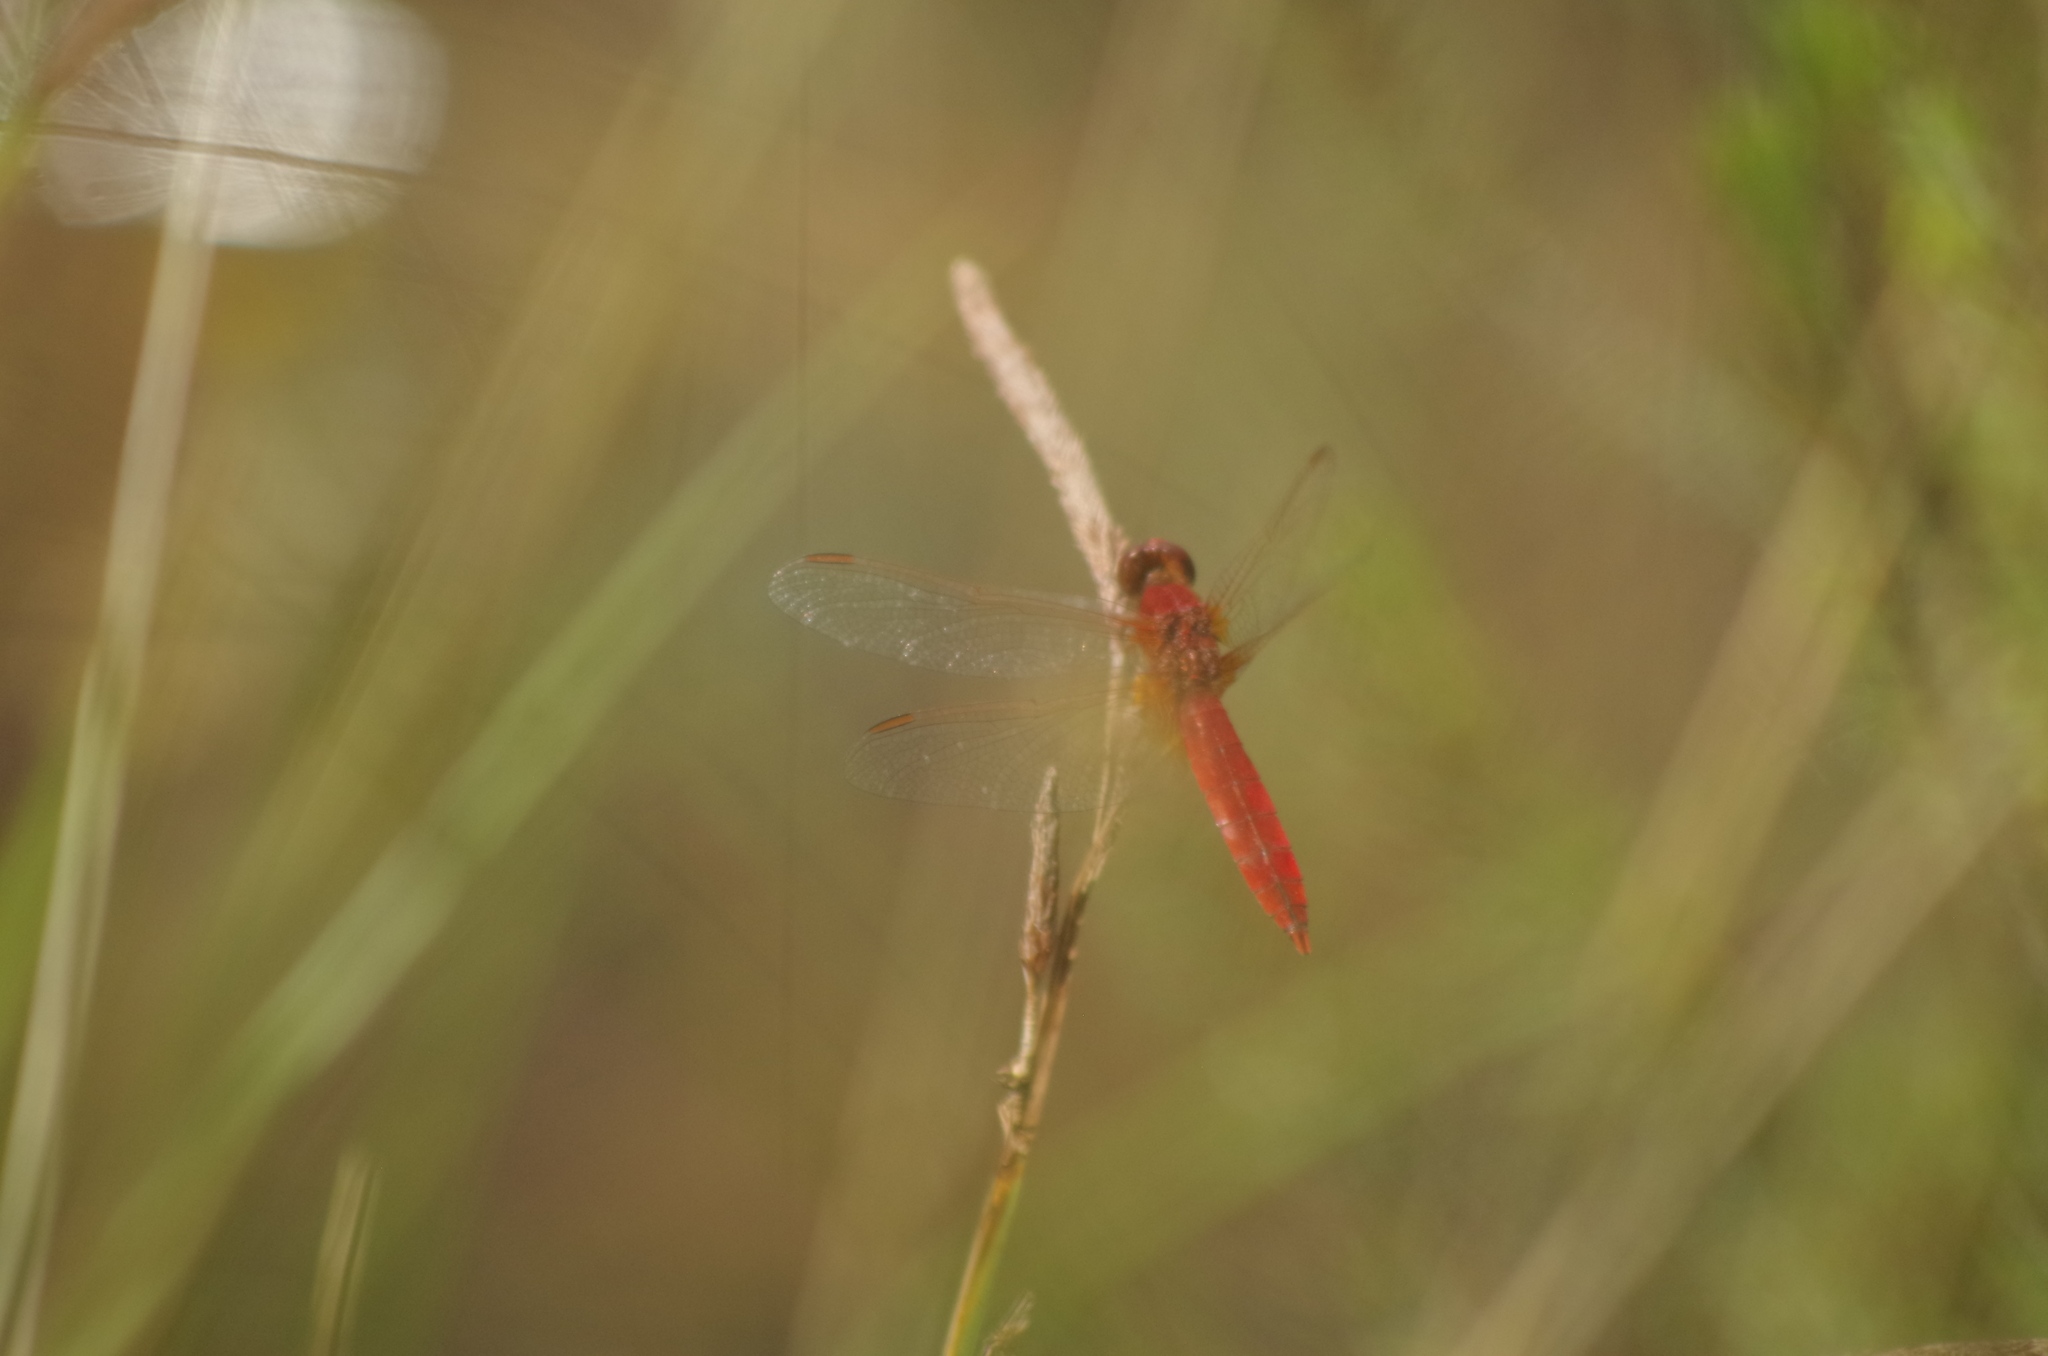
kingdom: Animalia
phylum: Arthropoda
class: Insecta
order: Odonata
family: Libellulidae
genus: Crocothemis
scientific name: Crocothemis erythraea
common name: Scarlet dragonfly
